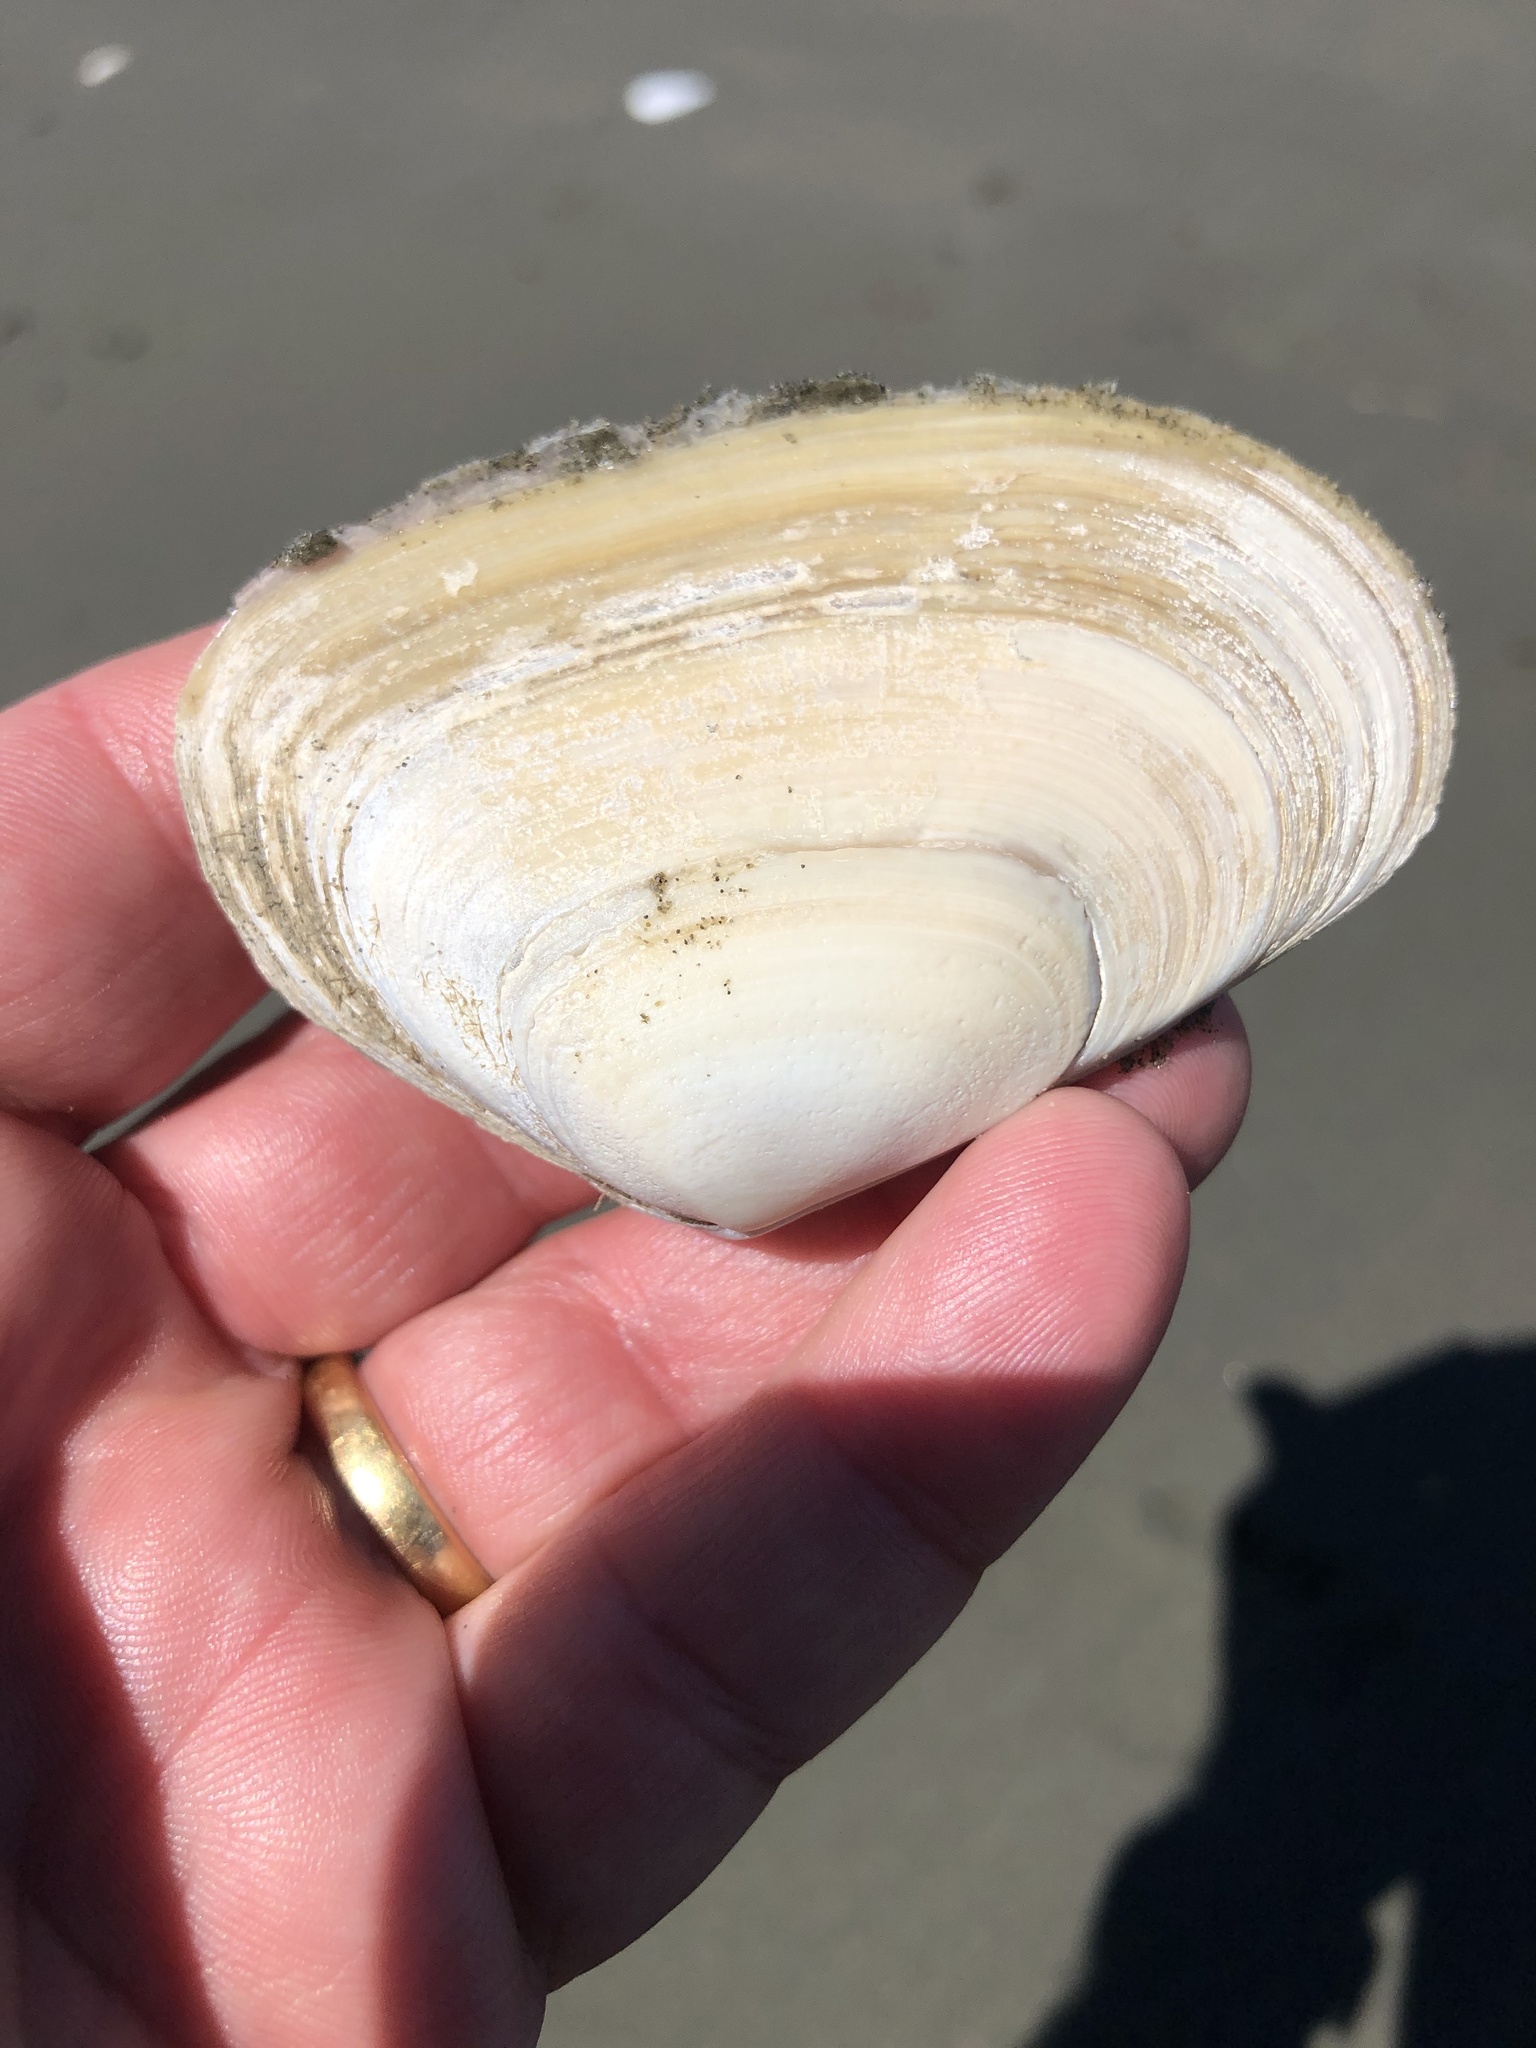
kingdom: Animalia
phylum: Mollusca
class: Bivalvia
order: Venerida
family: Mesodesmatidae
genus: Paphies
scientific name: Paphies donacina
